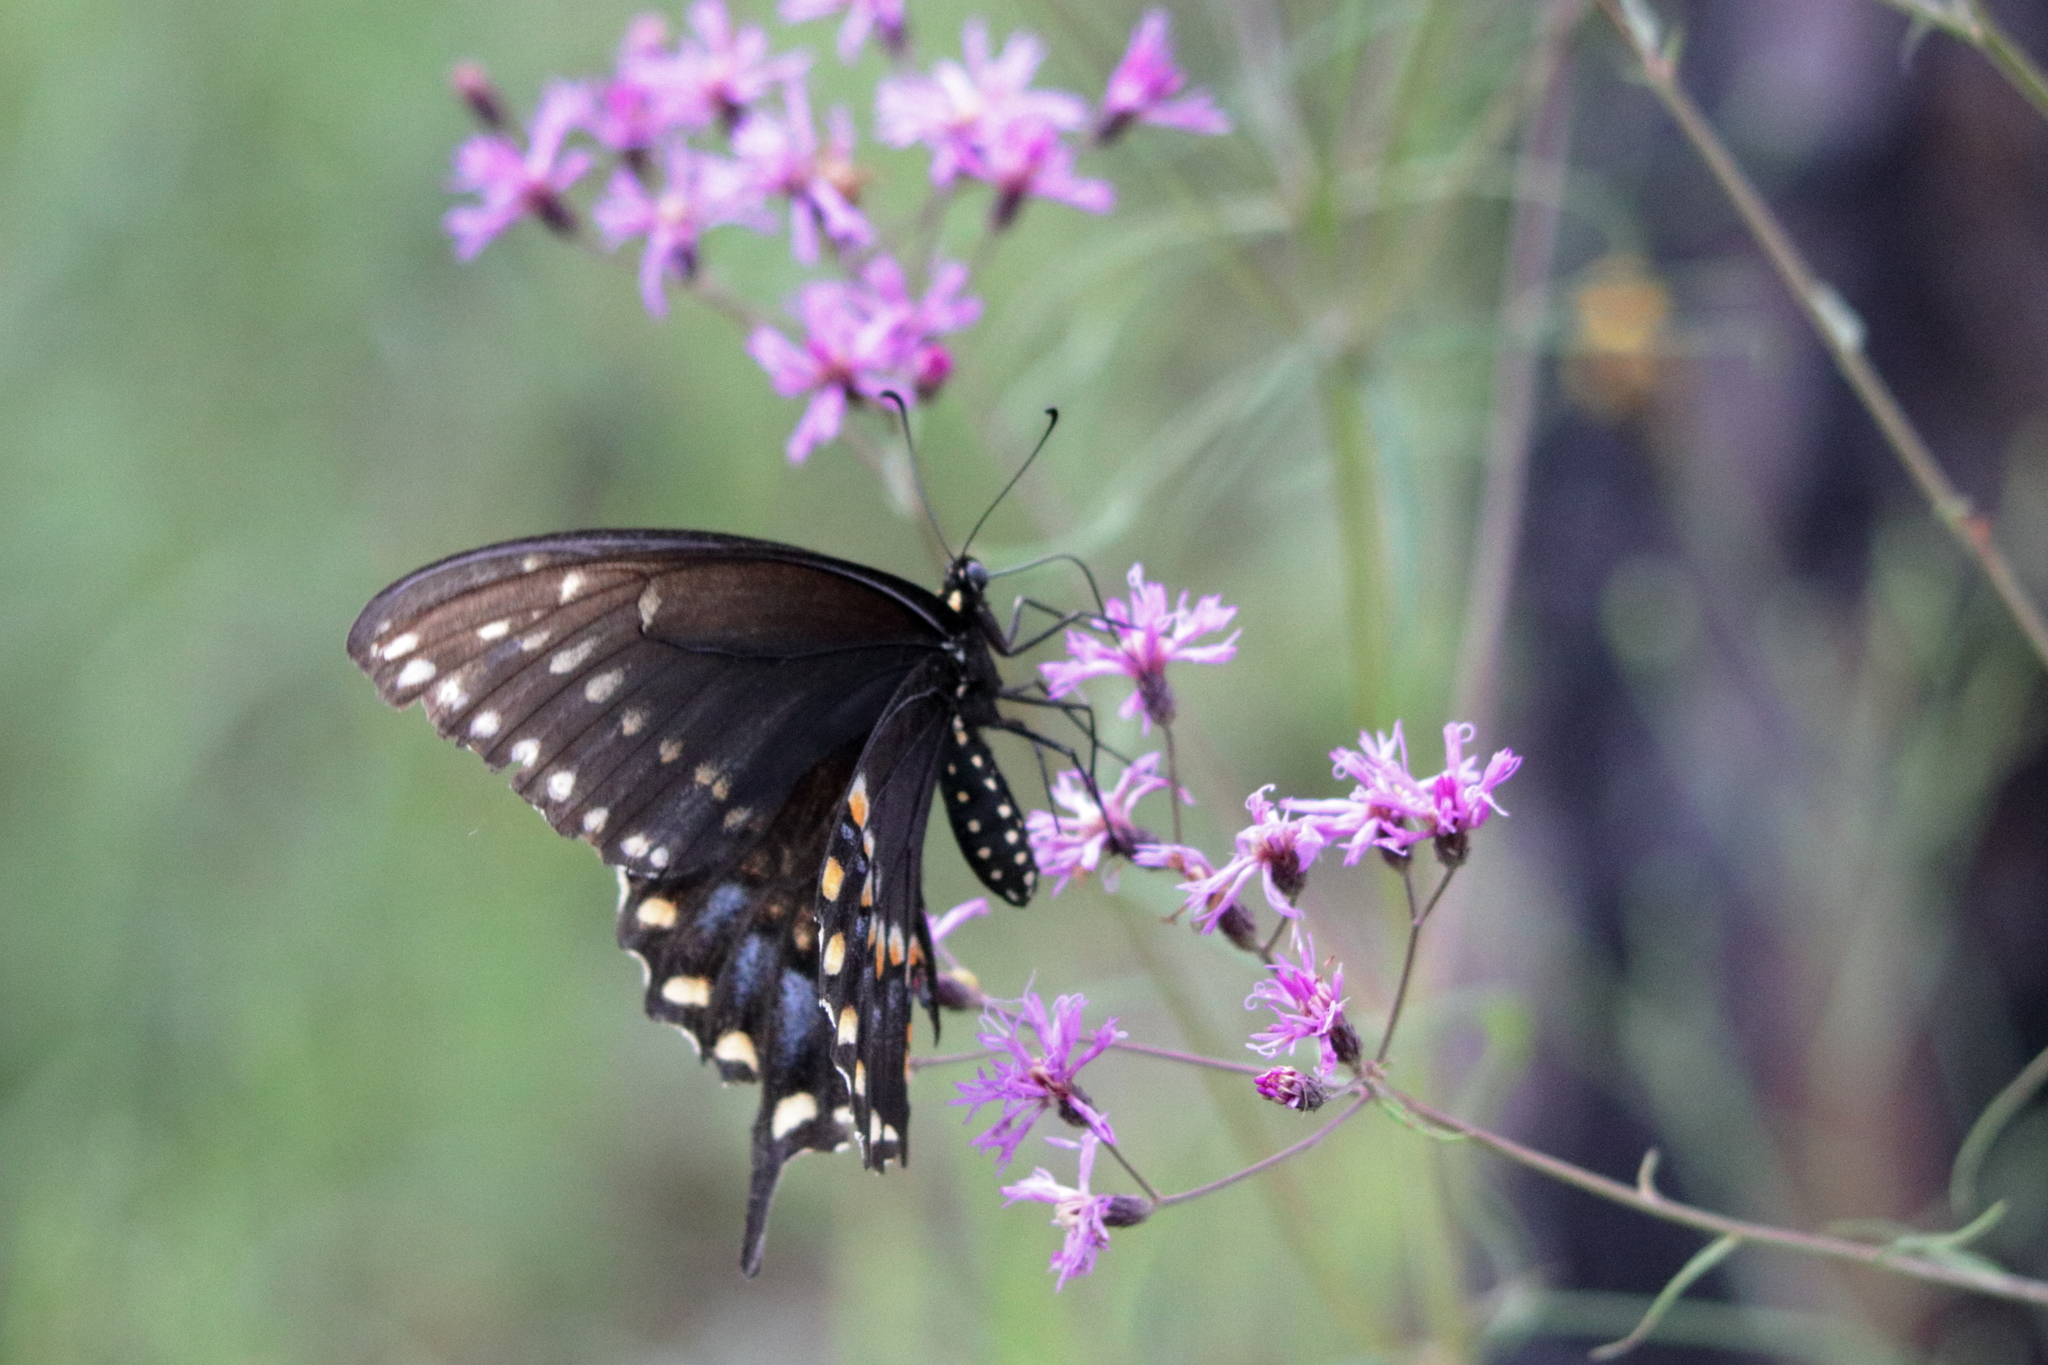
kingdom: Animalia
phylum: Arthropoda
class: Insecta
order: Lepidoptera
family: Papilionidae
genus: Papilio
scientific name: Papilio polyxenes
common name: Black swallowtail
